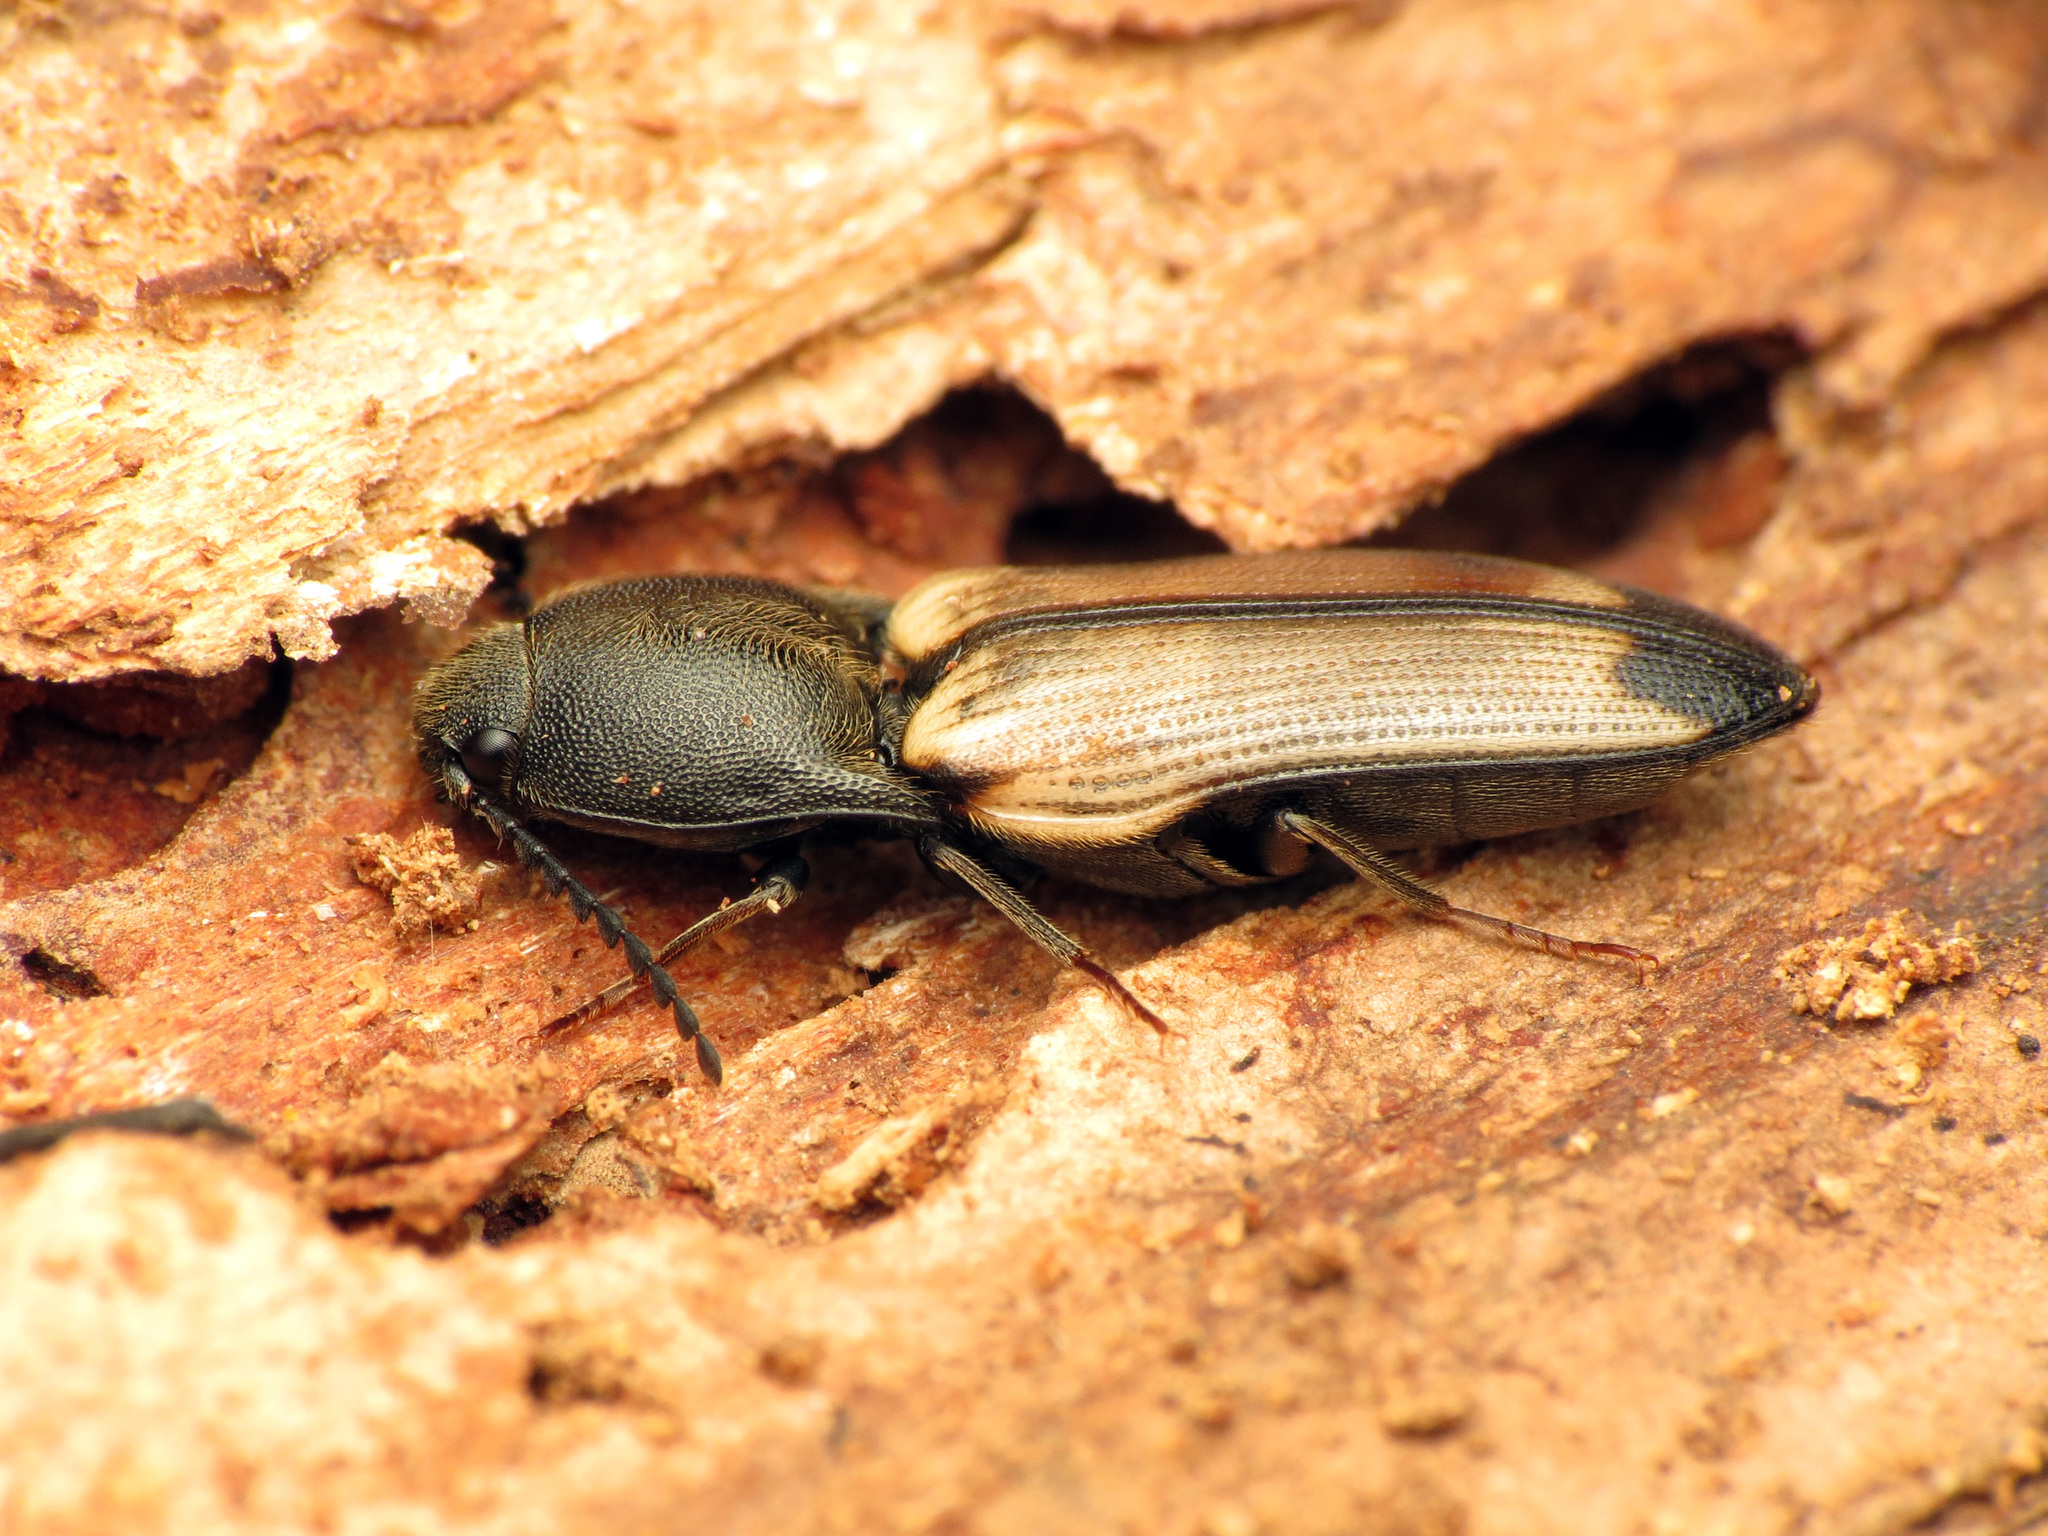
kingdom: Animalia
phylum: Arthropoda
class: Insecta
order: Coleoptera
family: Elateridae
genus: Ampedus
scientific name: Ampedus linteus
